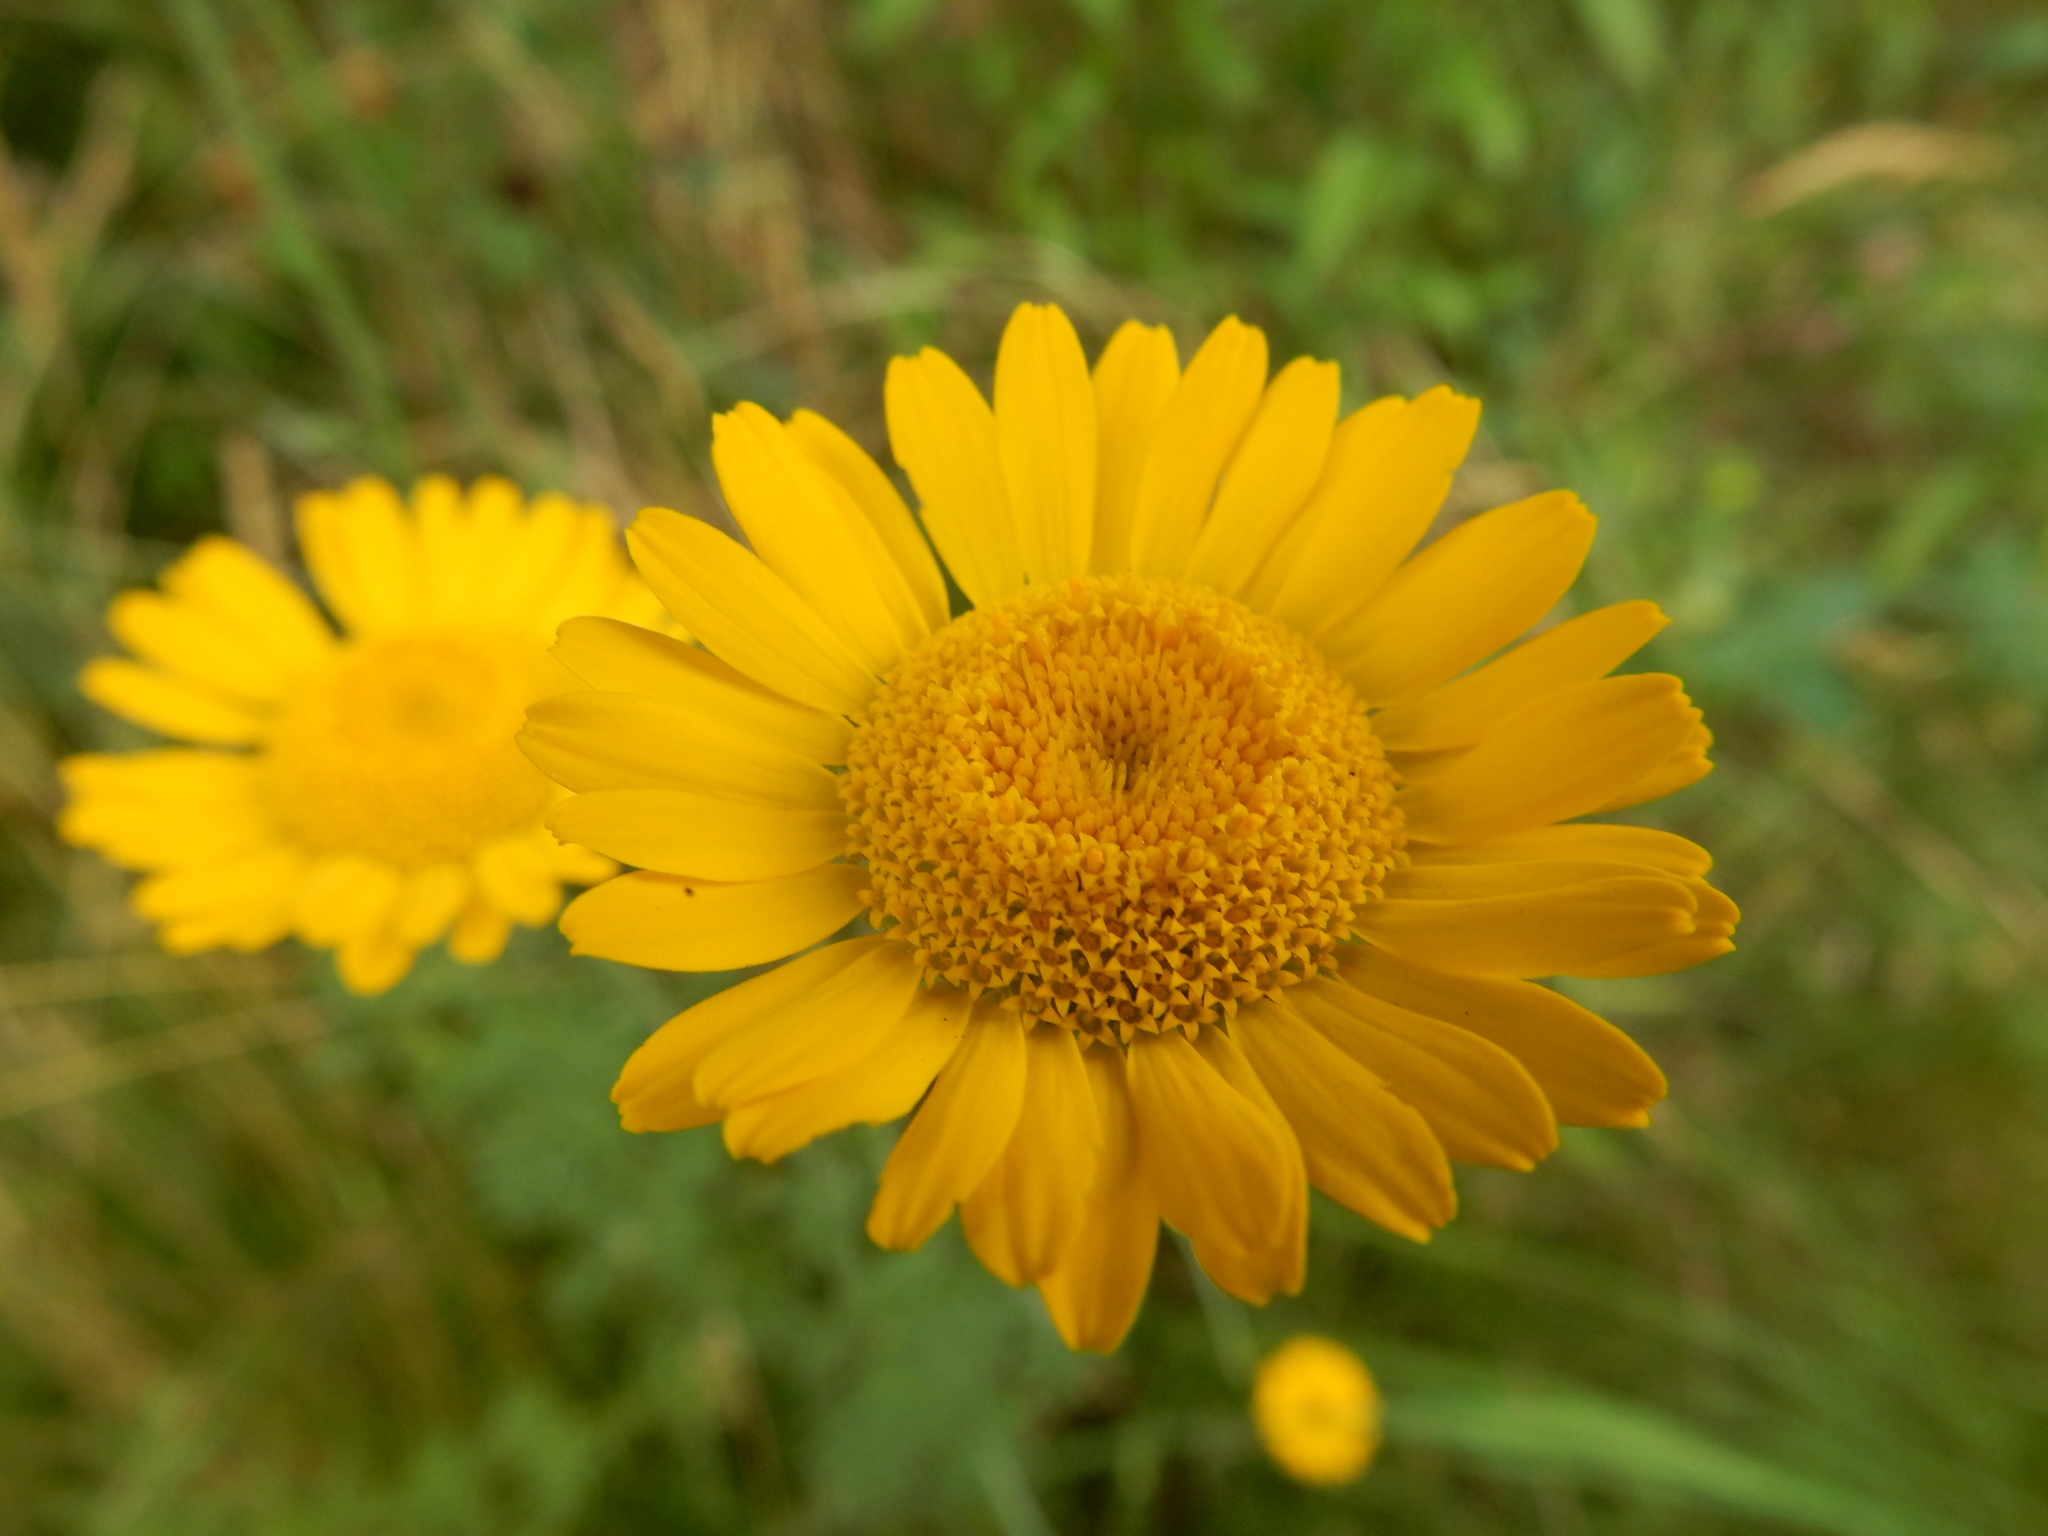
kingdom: Plantae
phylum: Tracheophyta
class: Magnoliopsida
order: Asterales
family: Asteraceae
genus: Cota
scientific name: Cota tinctoria
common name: Golden chamomile
